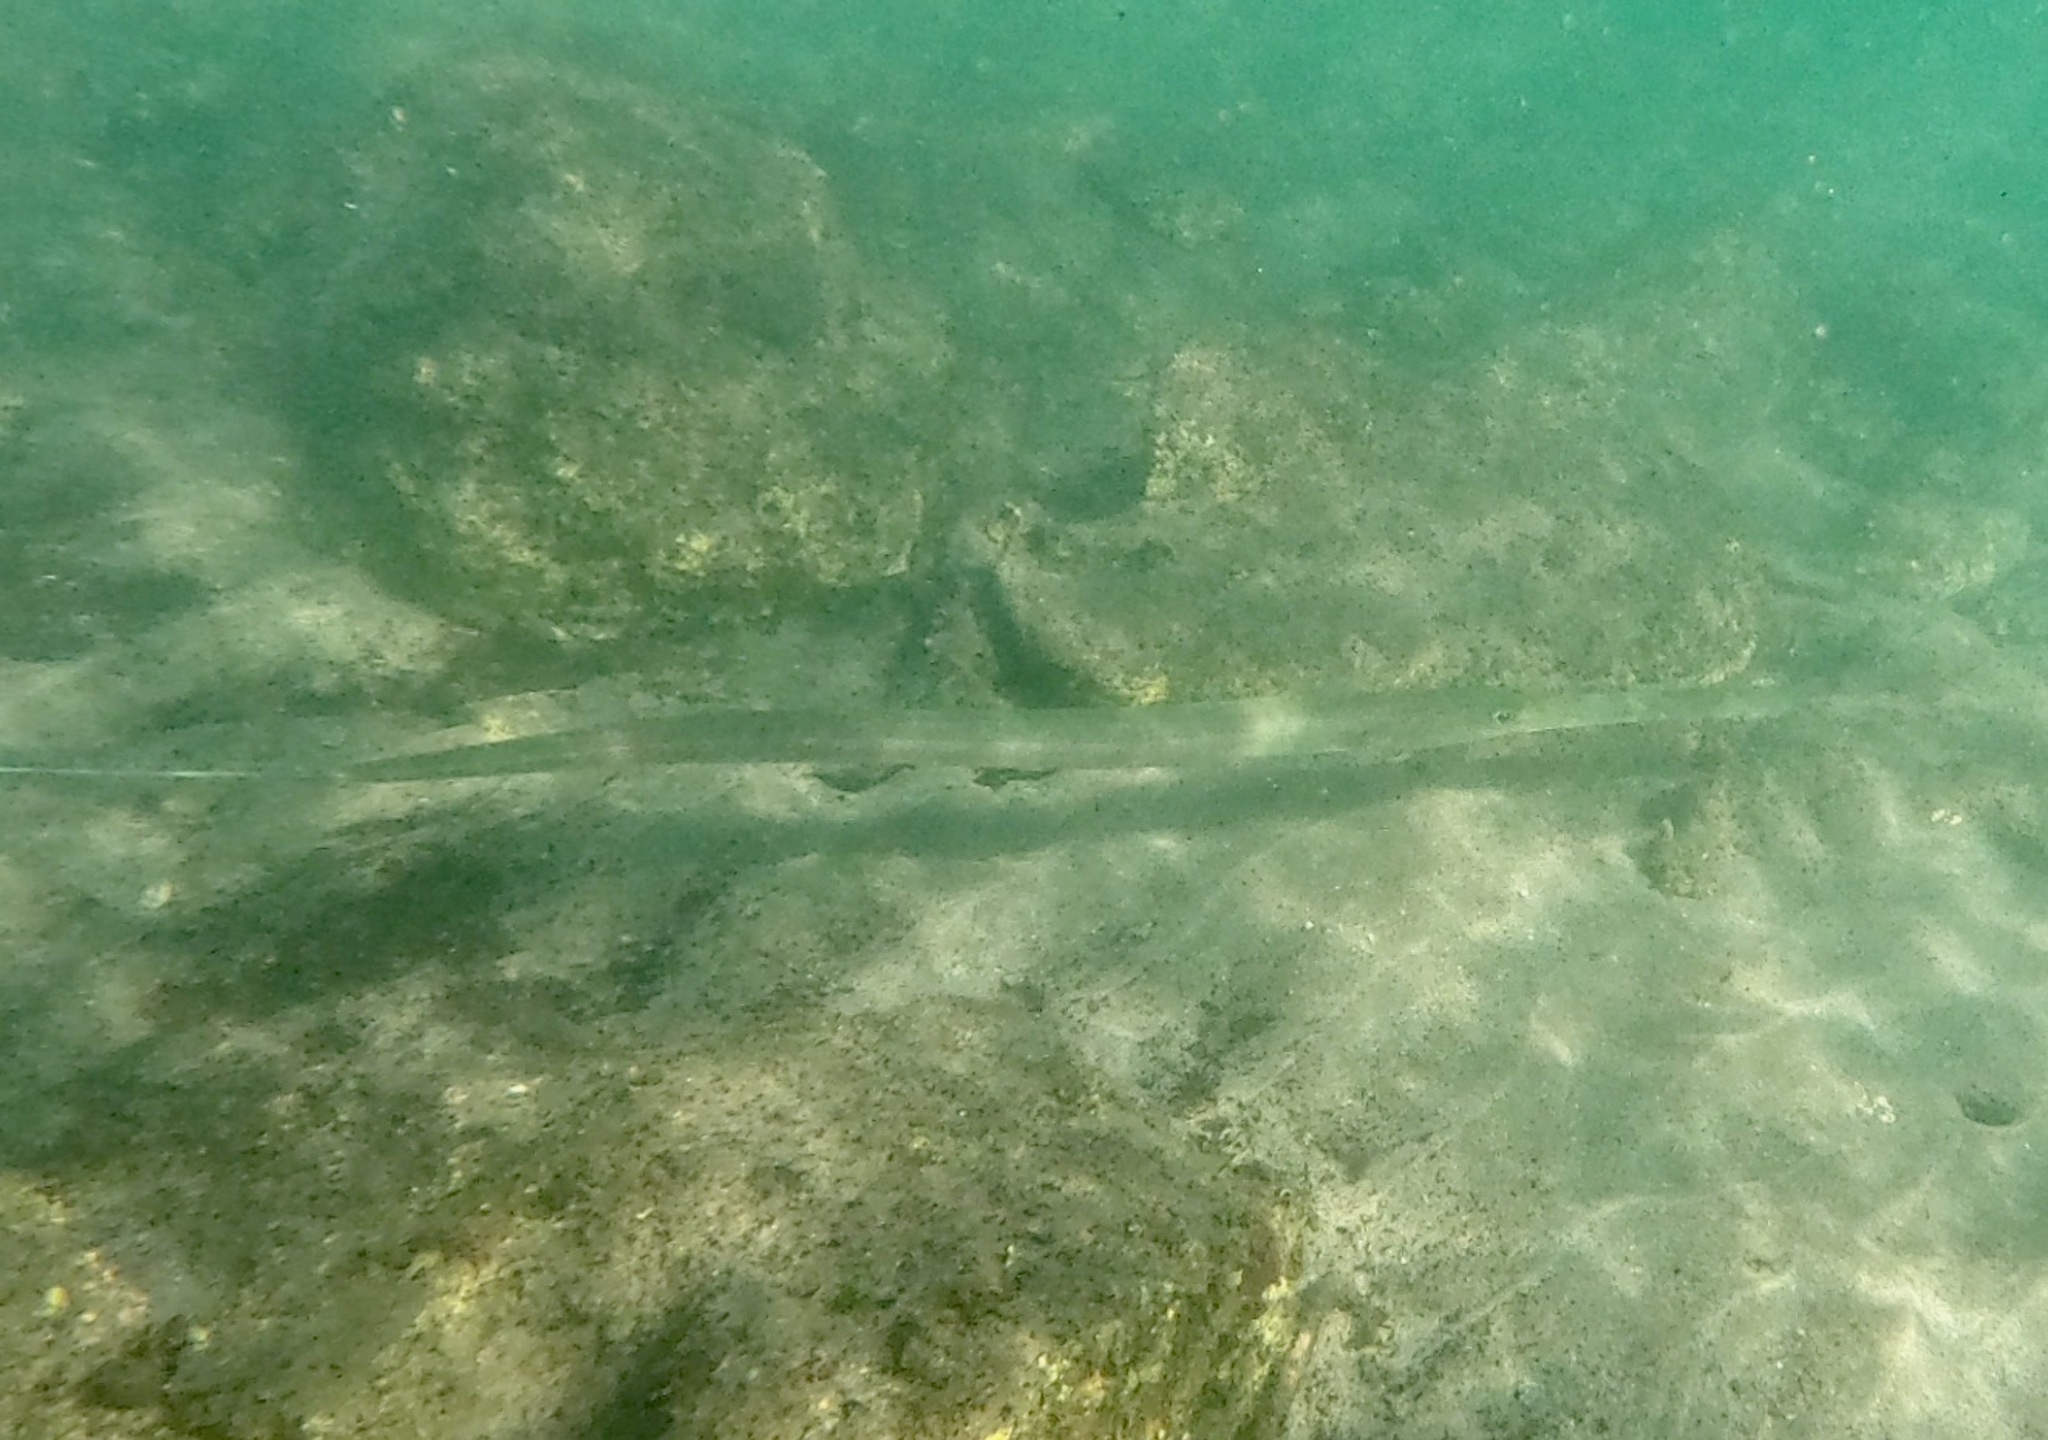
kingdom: Animalia
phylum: Chordata
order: Syngnathiformes
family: Fistulariidae
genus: Fistularia
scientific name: Fistularia commersonii
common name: Bluespotted cornetfish
